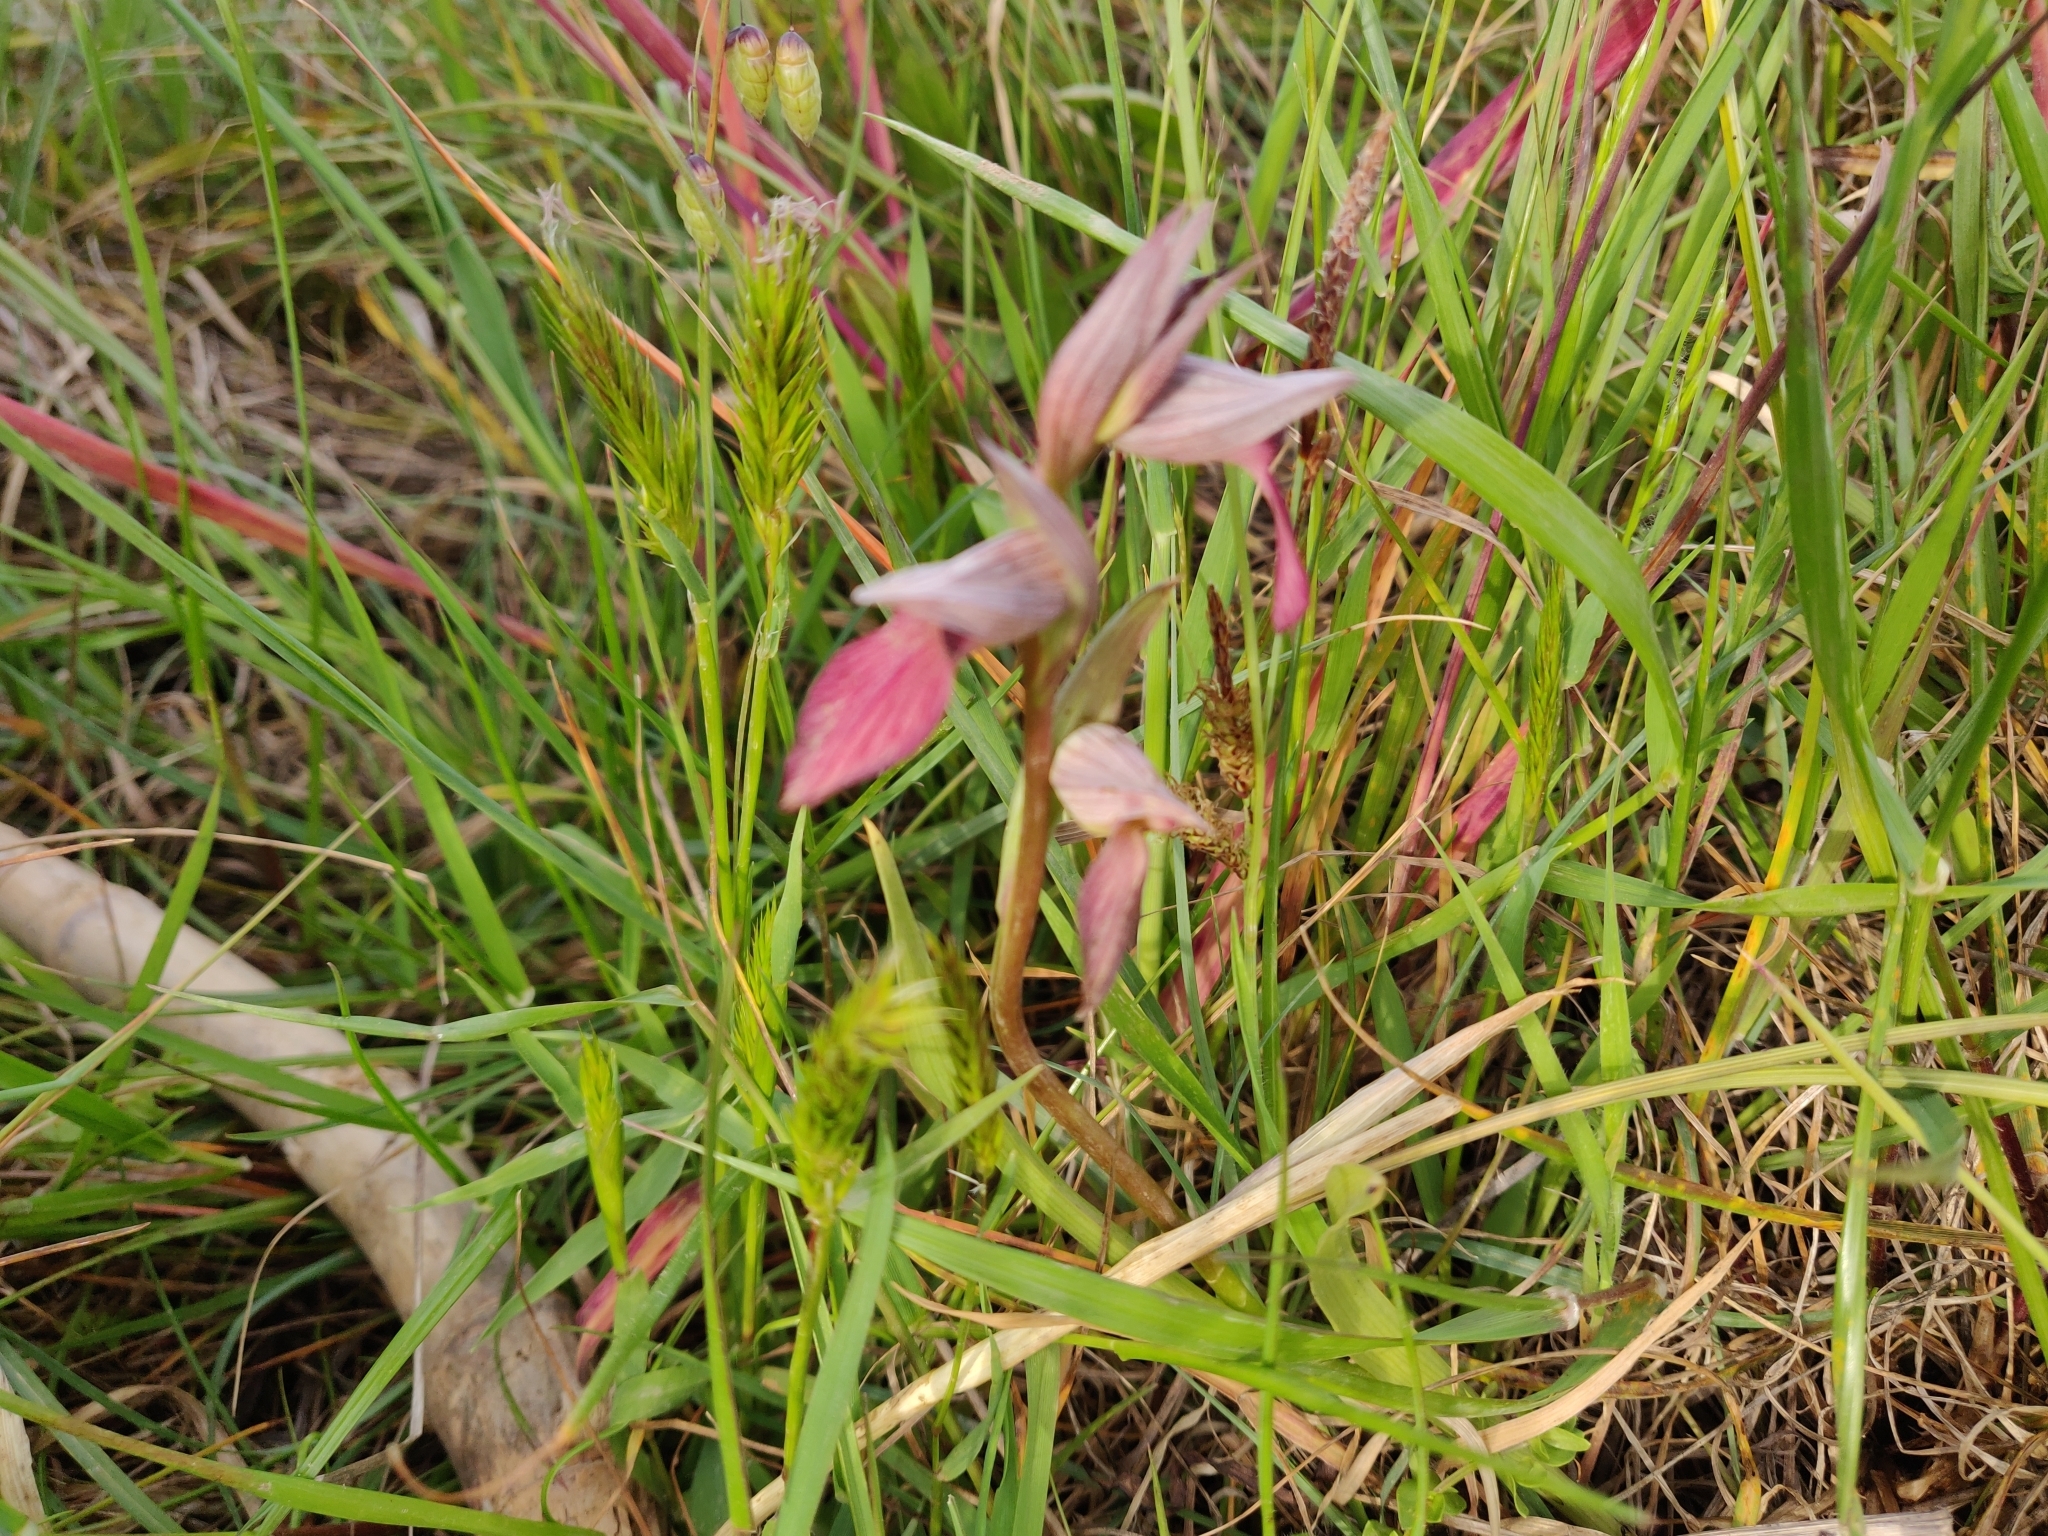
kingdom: Plantae
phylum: Tracheophyta
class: Liliopsida
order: Asparagales
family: Orchidaceae
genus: Serapias
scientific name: Serapias lingua
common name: Tongue-orchid
